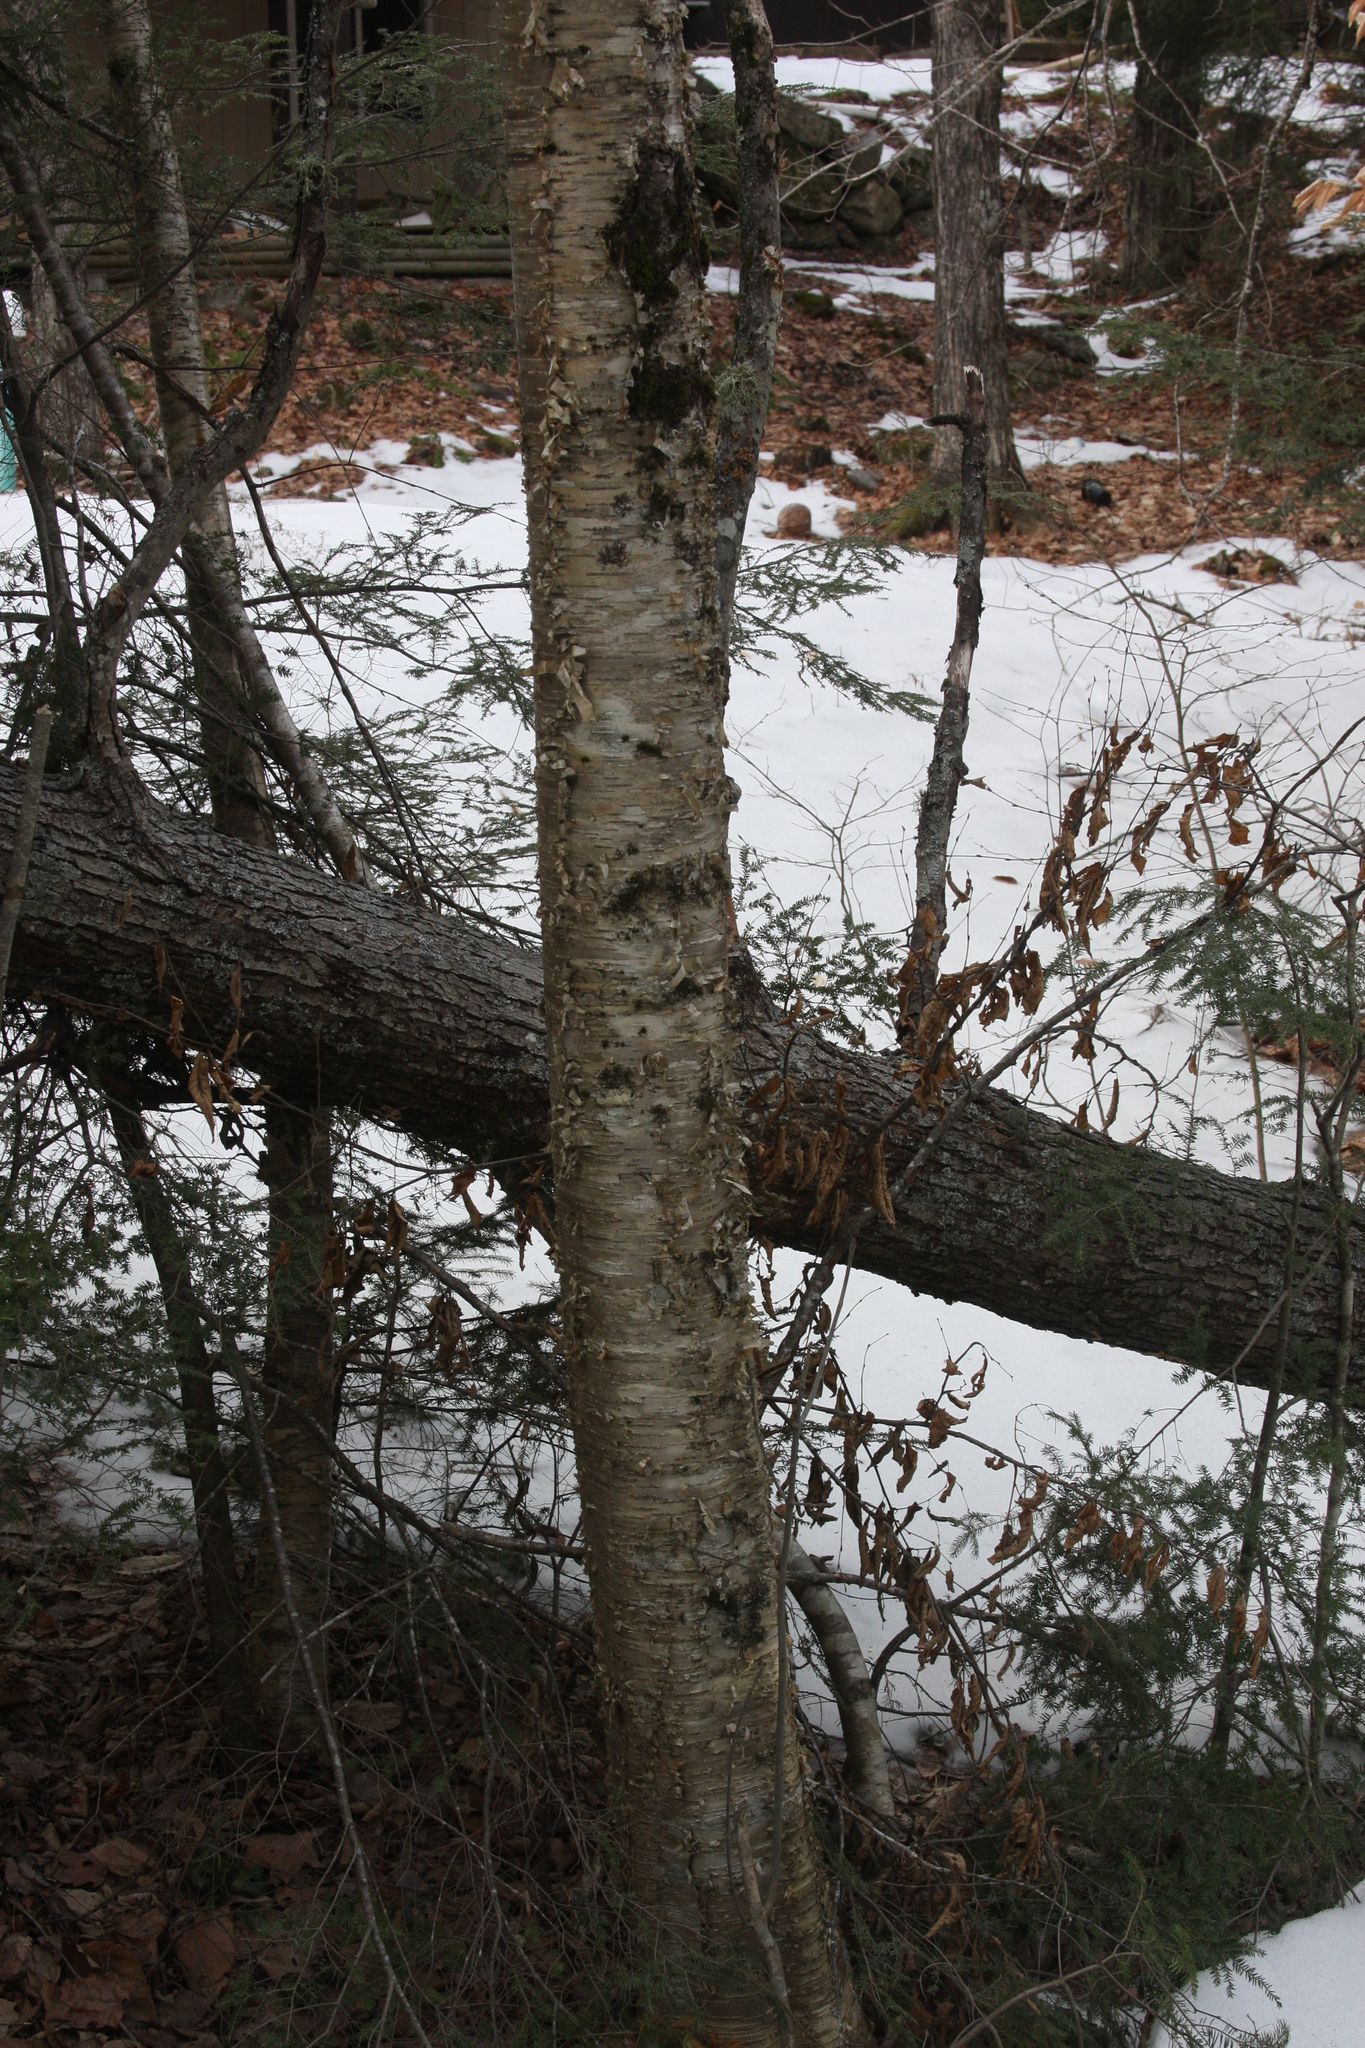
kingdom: Plantae
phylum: Tracheophyta
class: Magnoliopsida
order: Fagales
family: Betulaceae
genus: Betula
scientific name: Betula alleghaniensis
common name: Yellow birch
